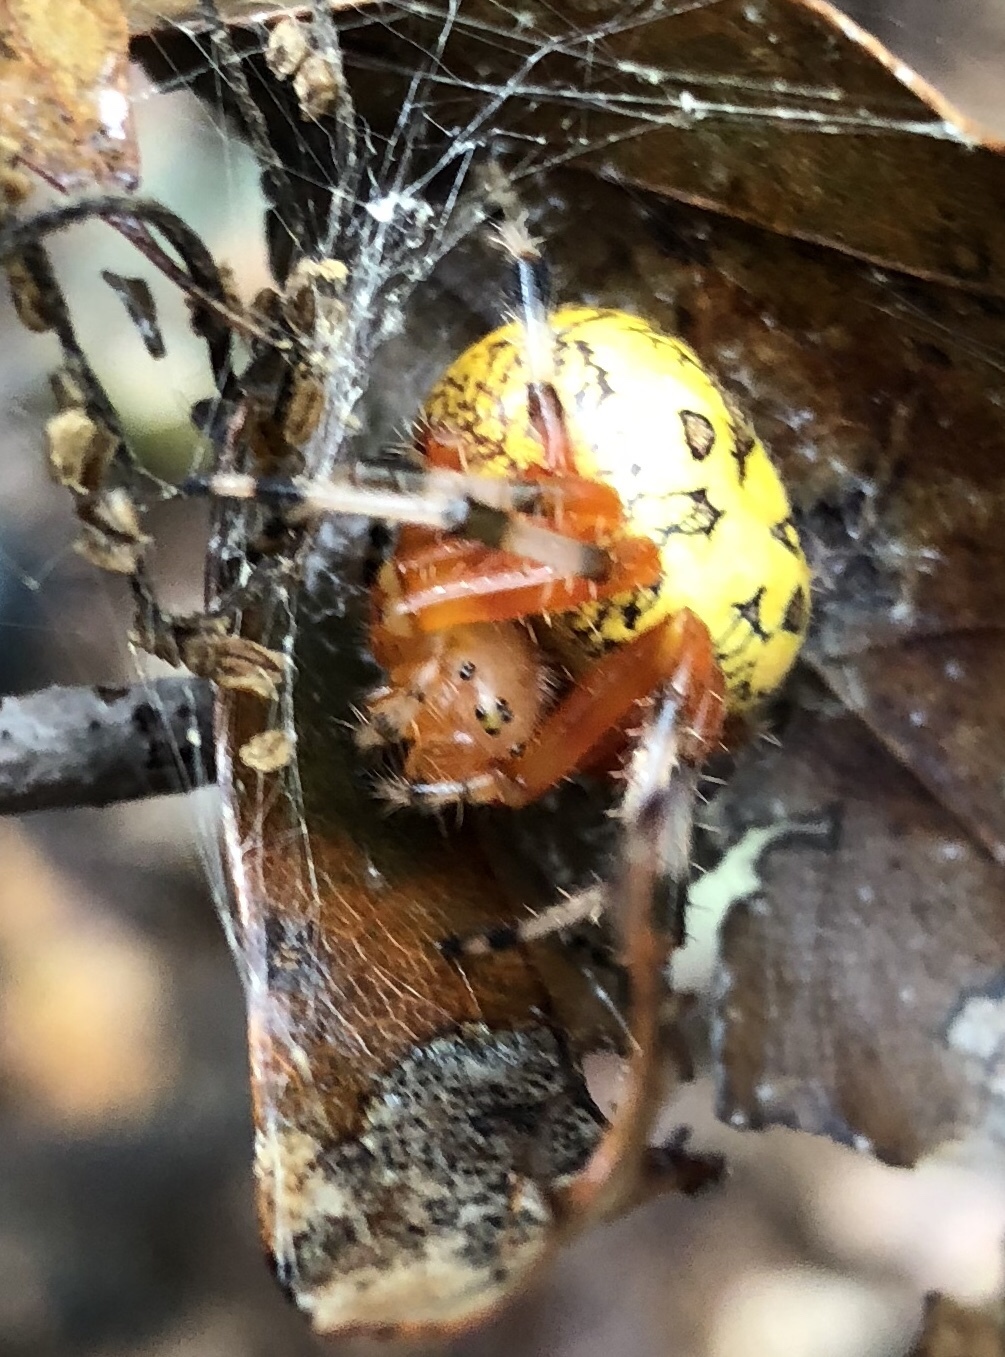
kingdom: Animalia
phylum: Arthropoda
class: Arachnida
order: Araneae
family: Araneidae
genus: Araneus
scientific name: Araneus marmoreus
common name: Marbled orbweaver
